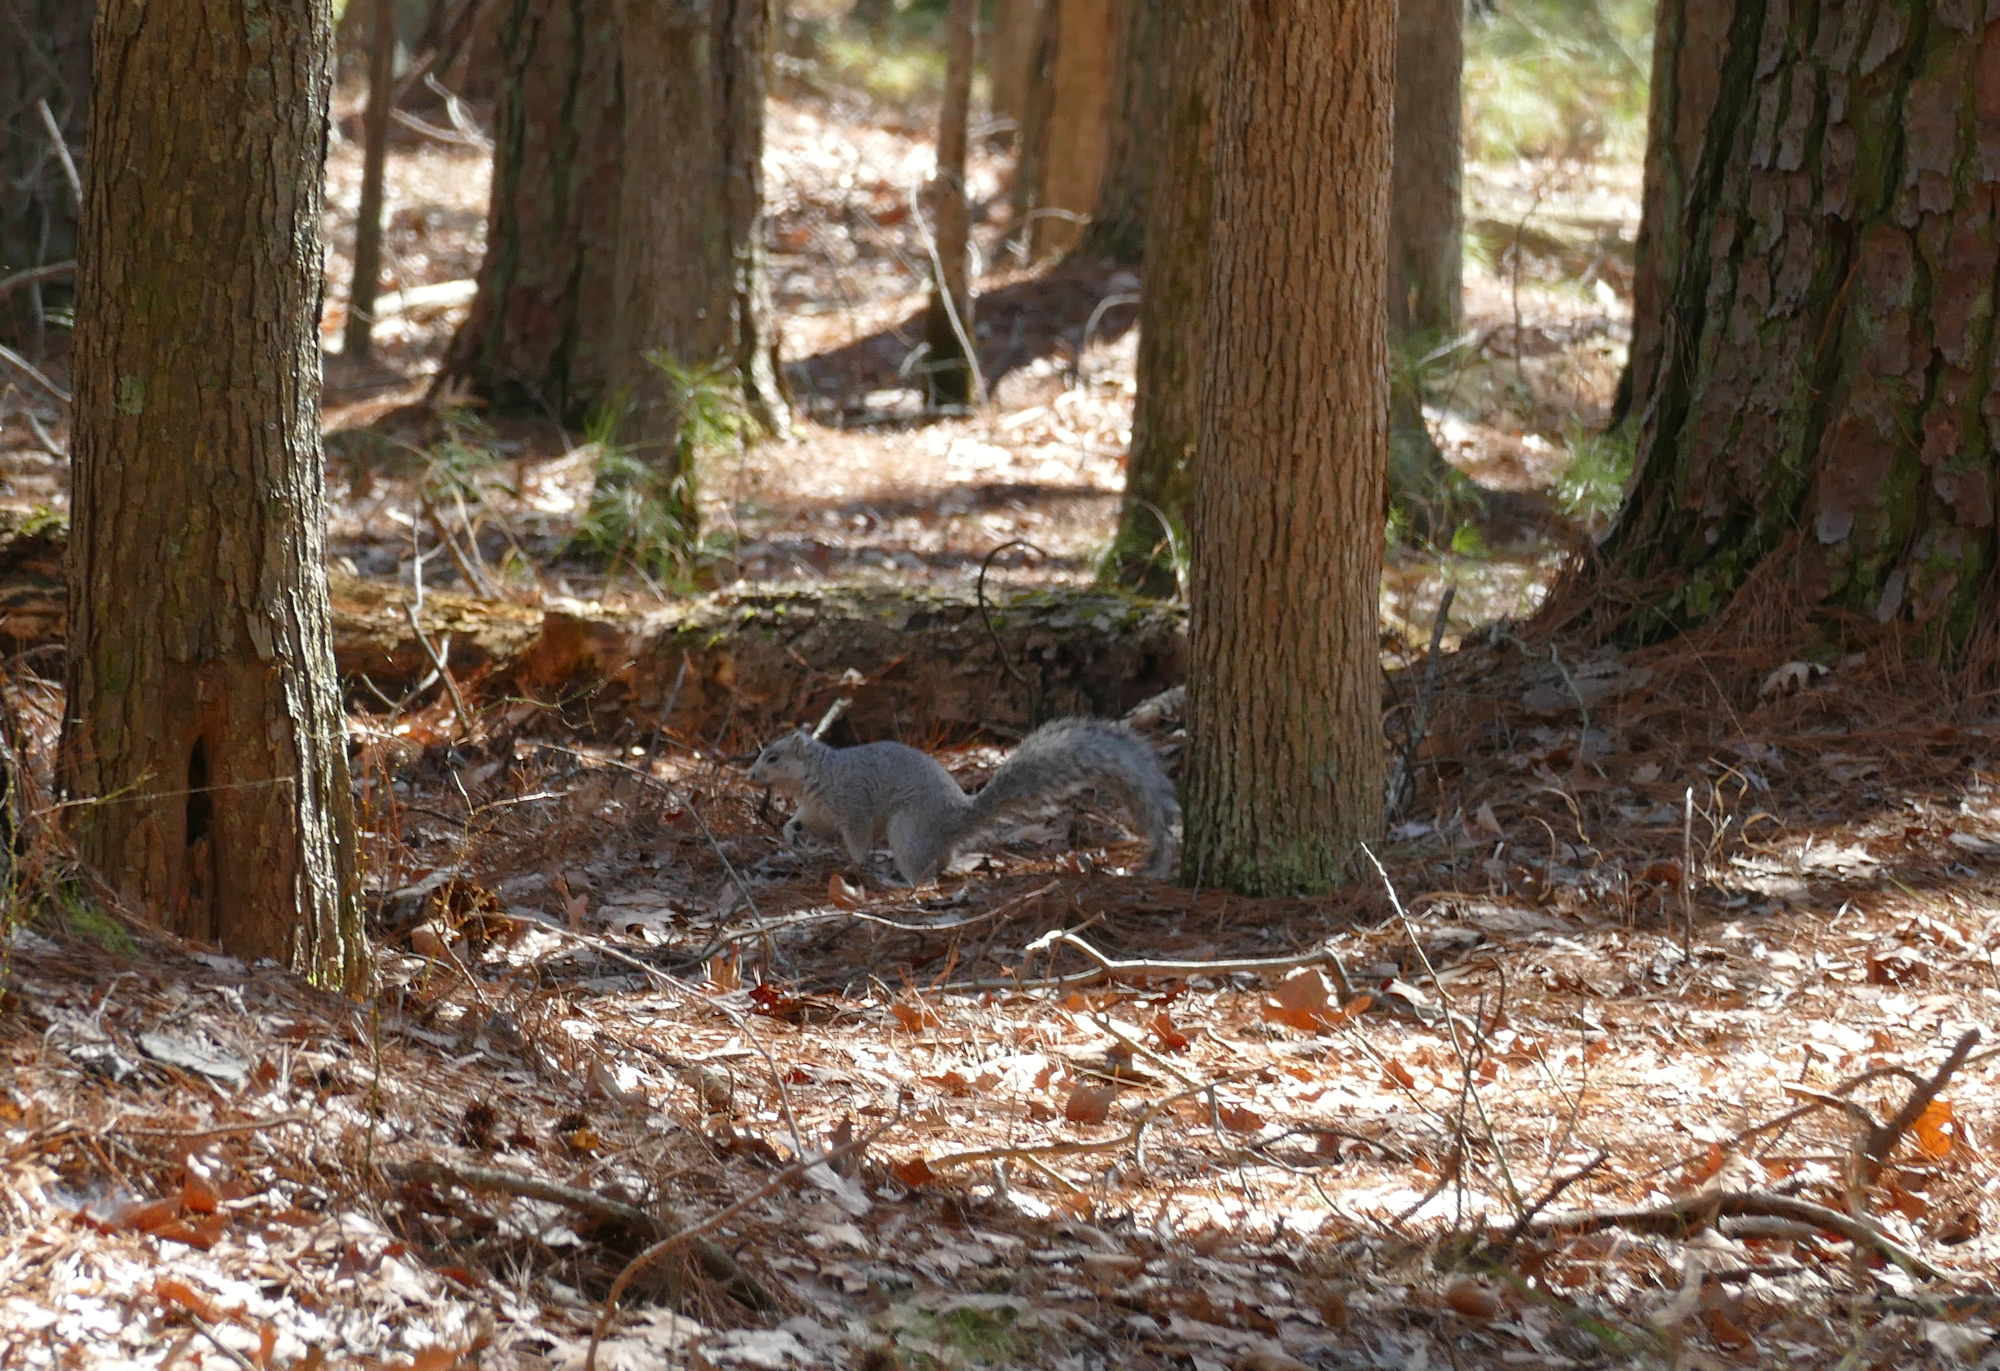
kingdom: Animalia
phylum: Chordata
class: Mammalia
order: Rodentia
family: Sciuridae
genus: Sciurus
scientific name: Sciurus niger
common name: Fox squirrel
